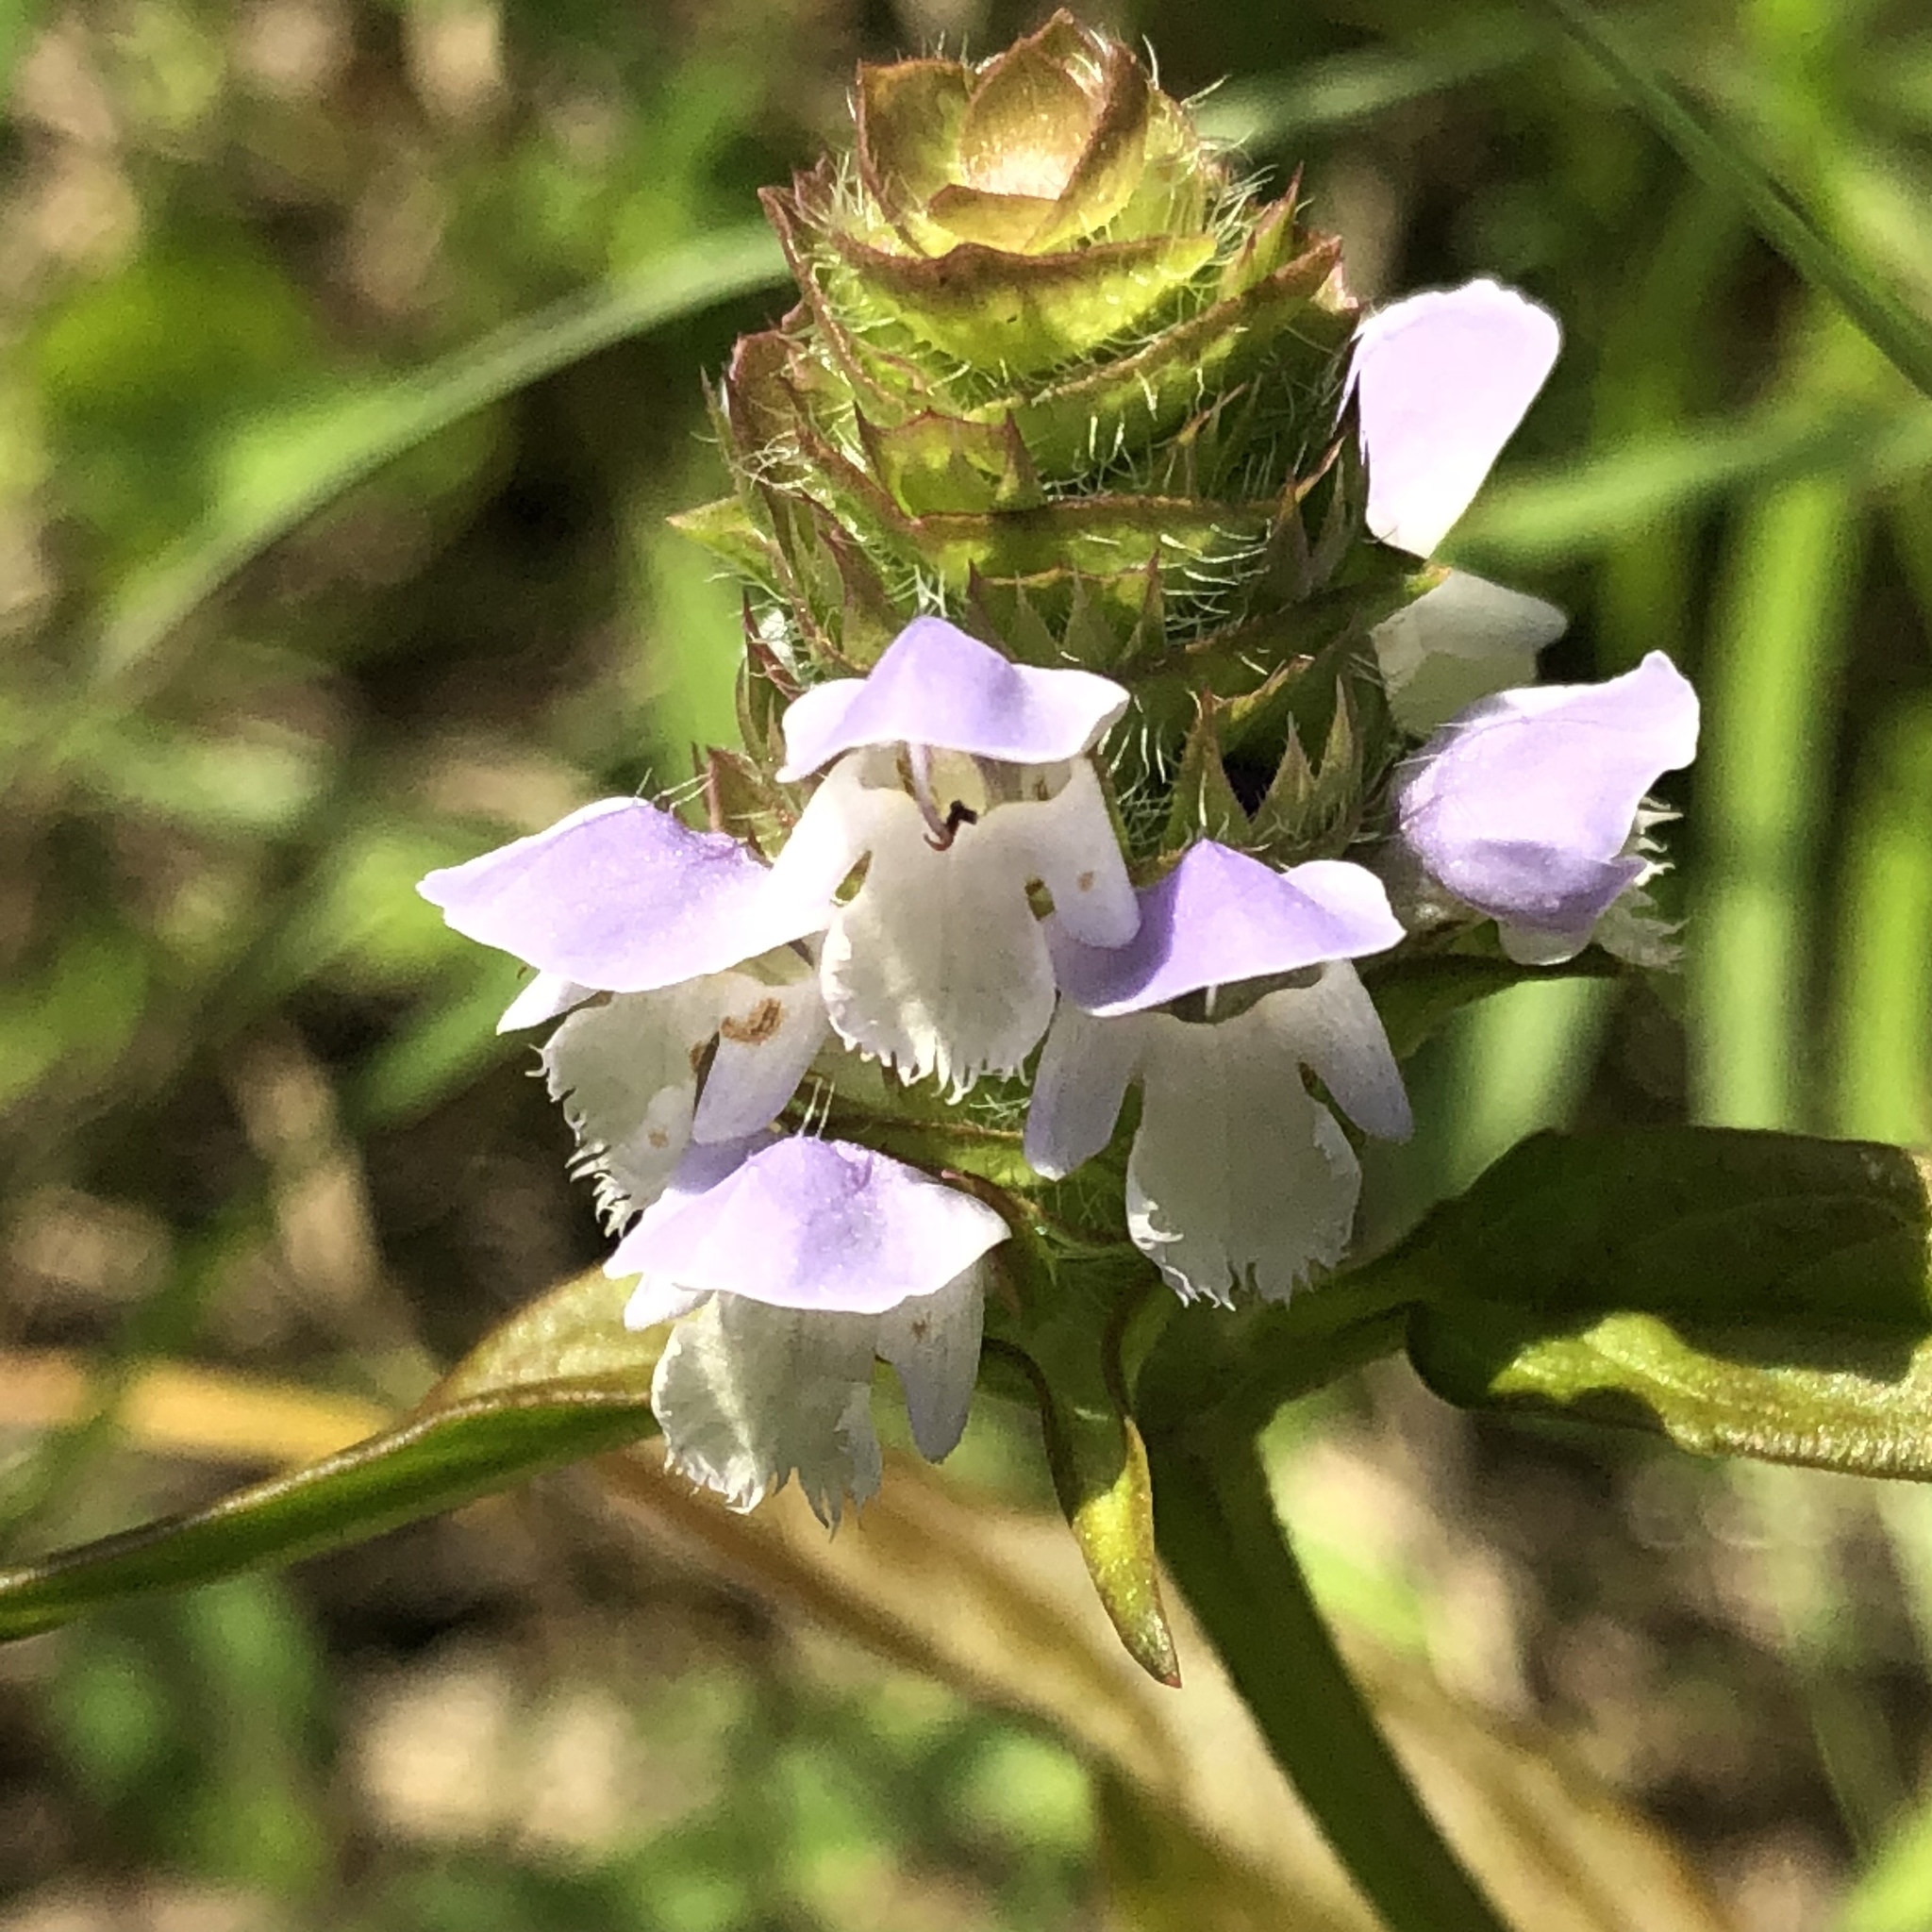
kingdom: Plantae
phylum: Tracheophyta
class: Magnoliopsida
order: Lamiales
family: Lamiaceae
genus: Prunella
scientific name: Prunella vulgaris
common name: Heal-all
